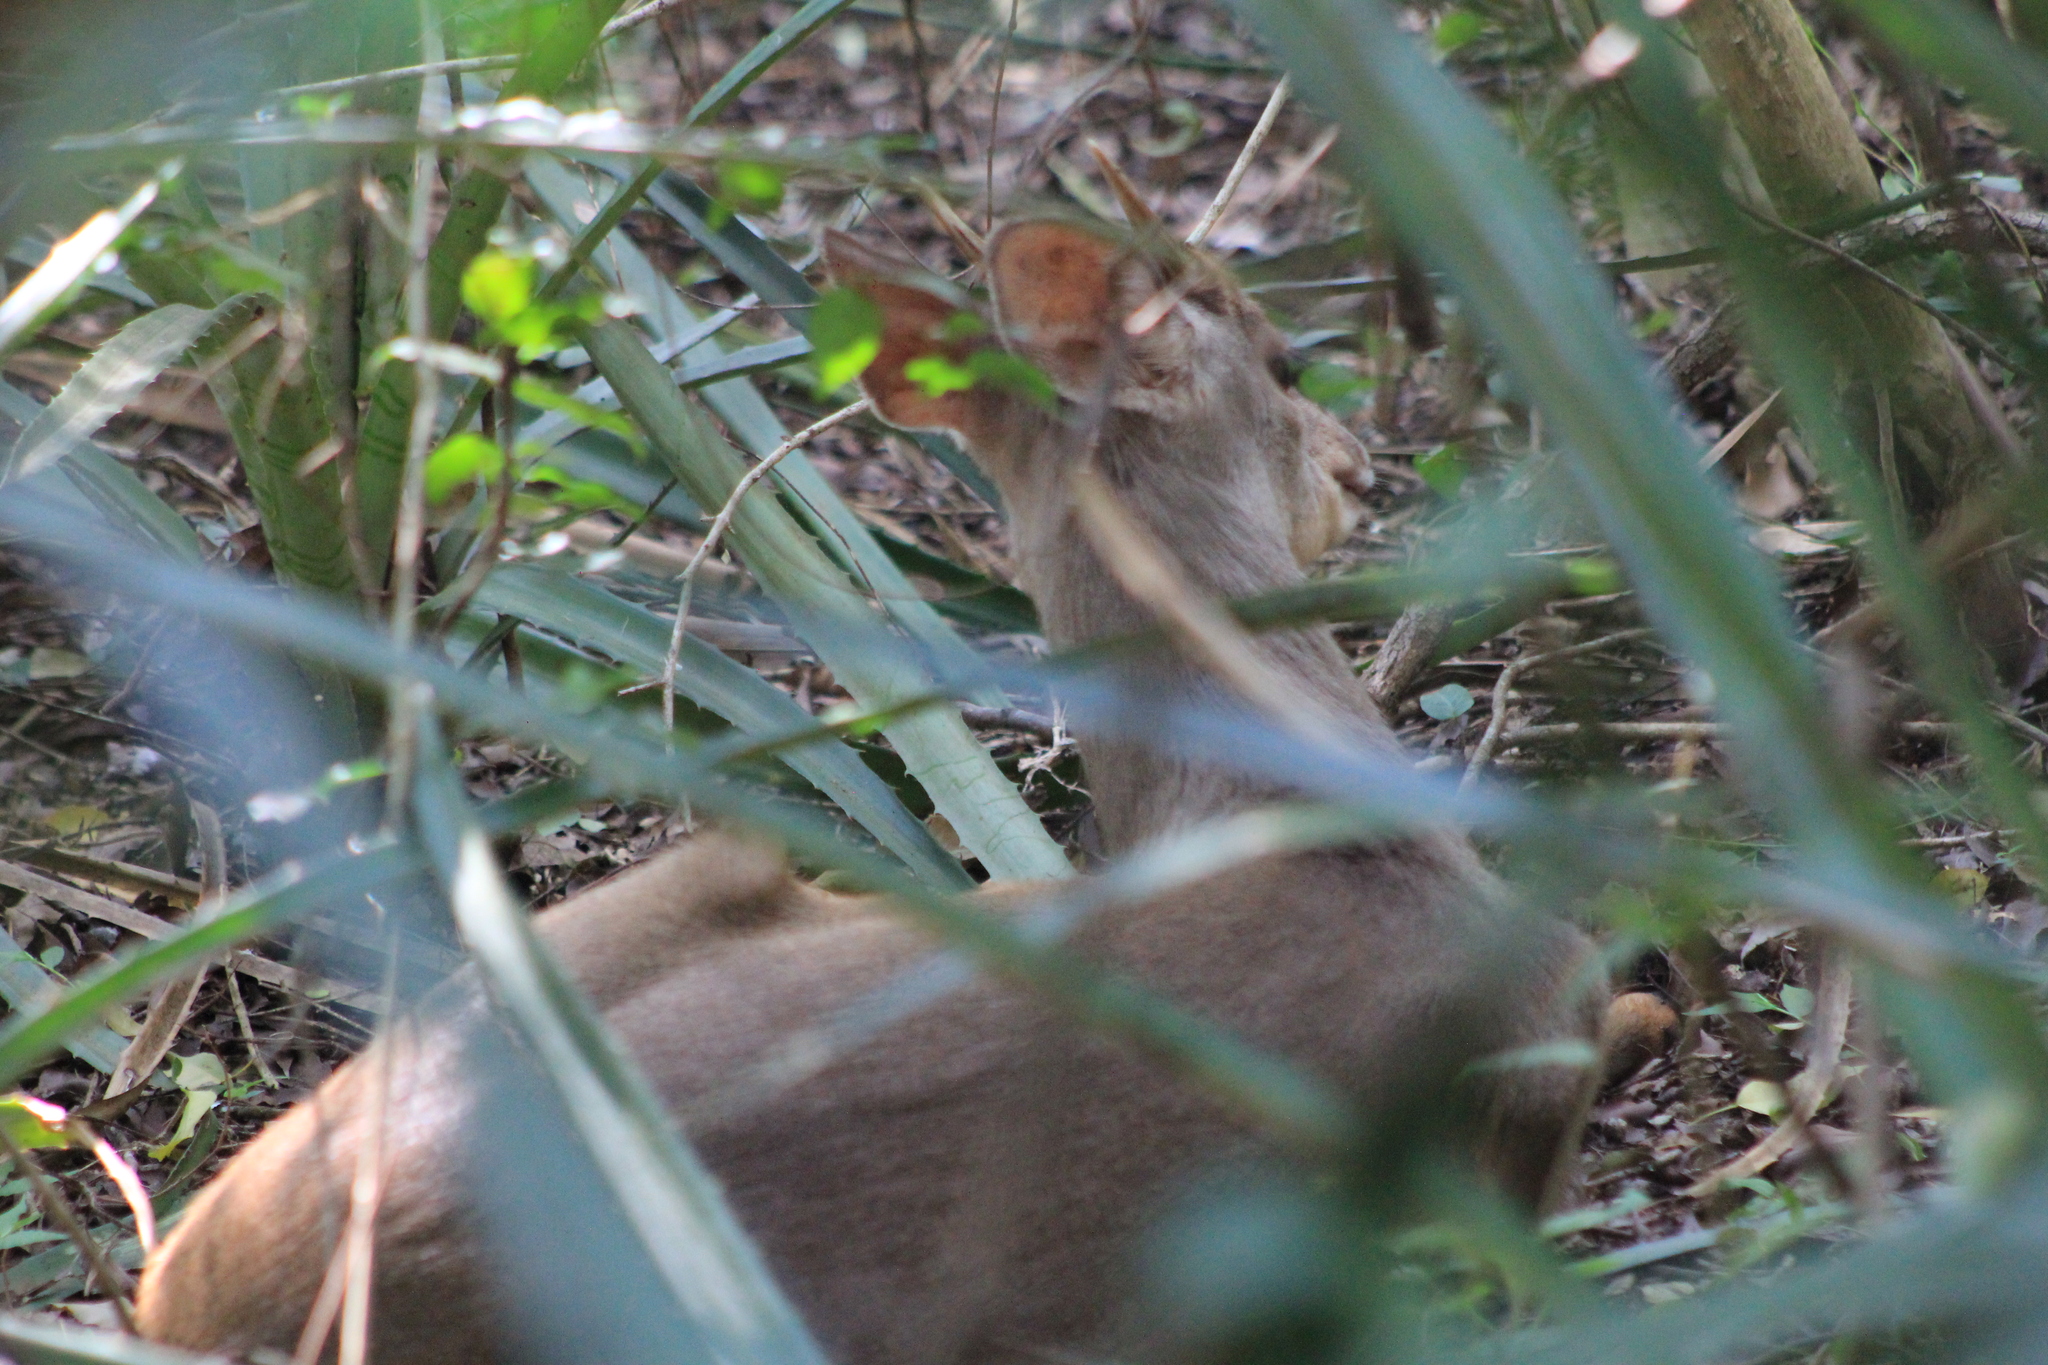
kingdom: Animalia
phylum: Chordata
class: Mammalia
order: Artiodactyla
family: Cervidae
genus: Mazama
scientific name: Mazama gouazoubira
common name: Gray brocket
